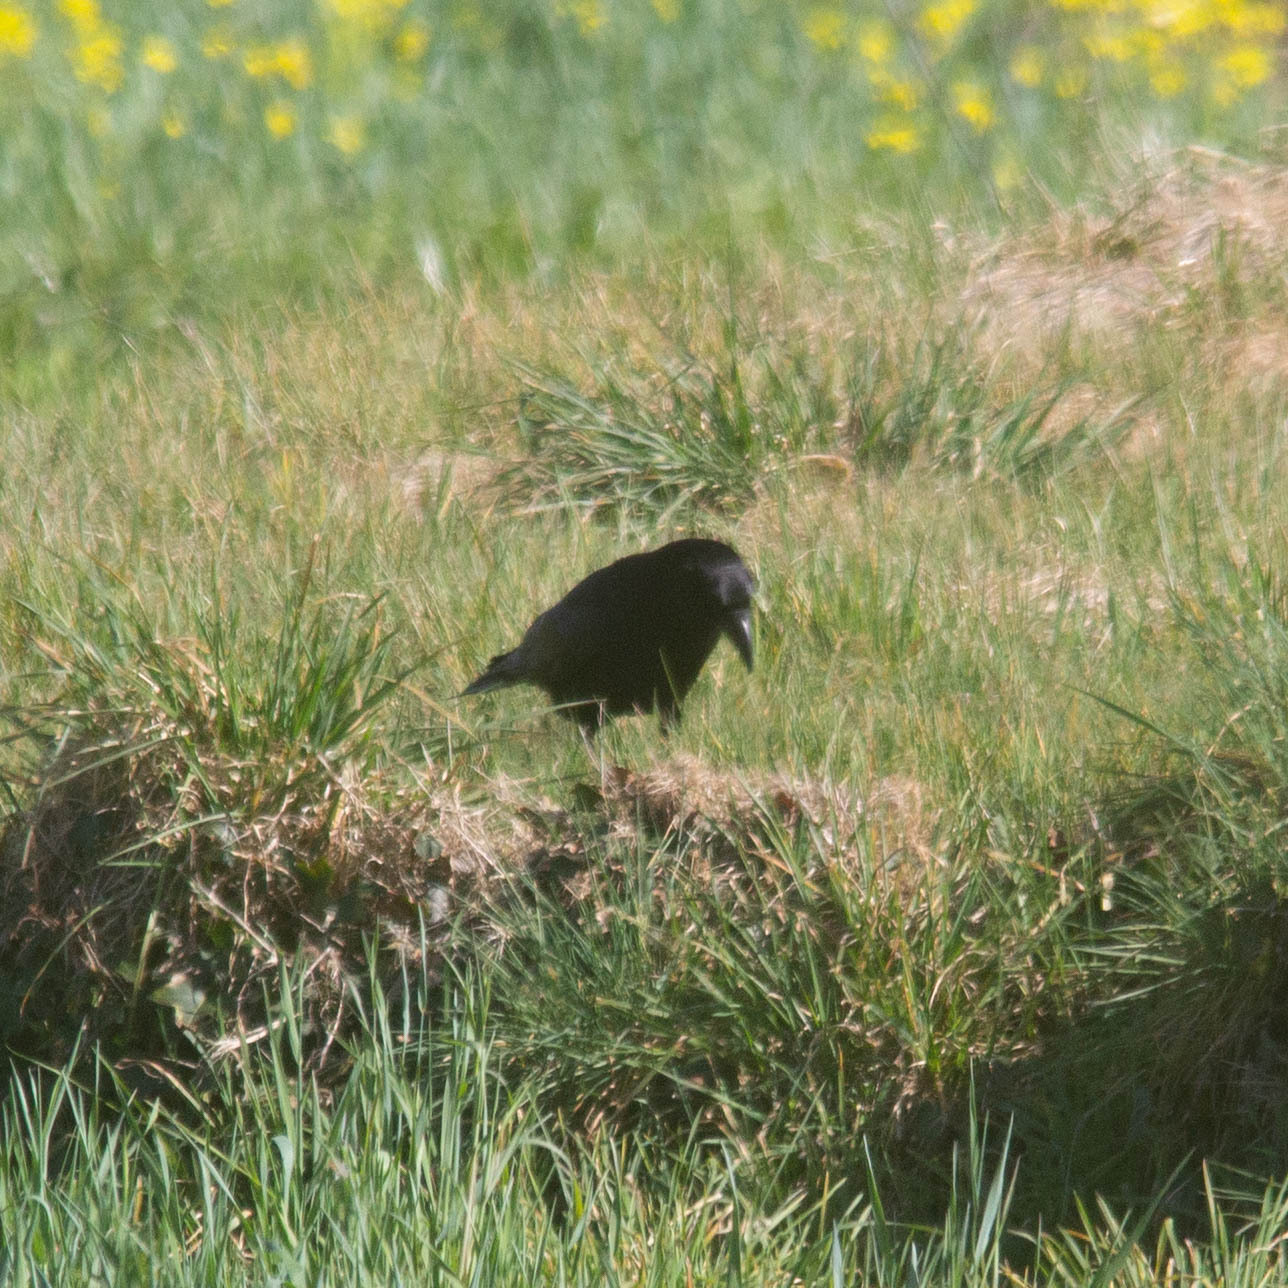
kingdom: Animalia
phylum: Chordata
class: Aves
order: Passeriformes
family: Corvidae
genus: Corvus
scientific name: Corvus corone
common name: Carrion crow
